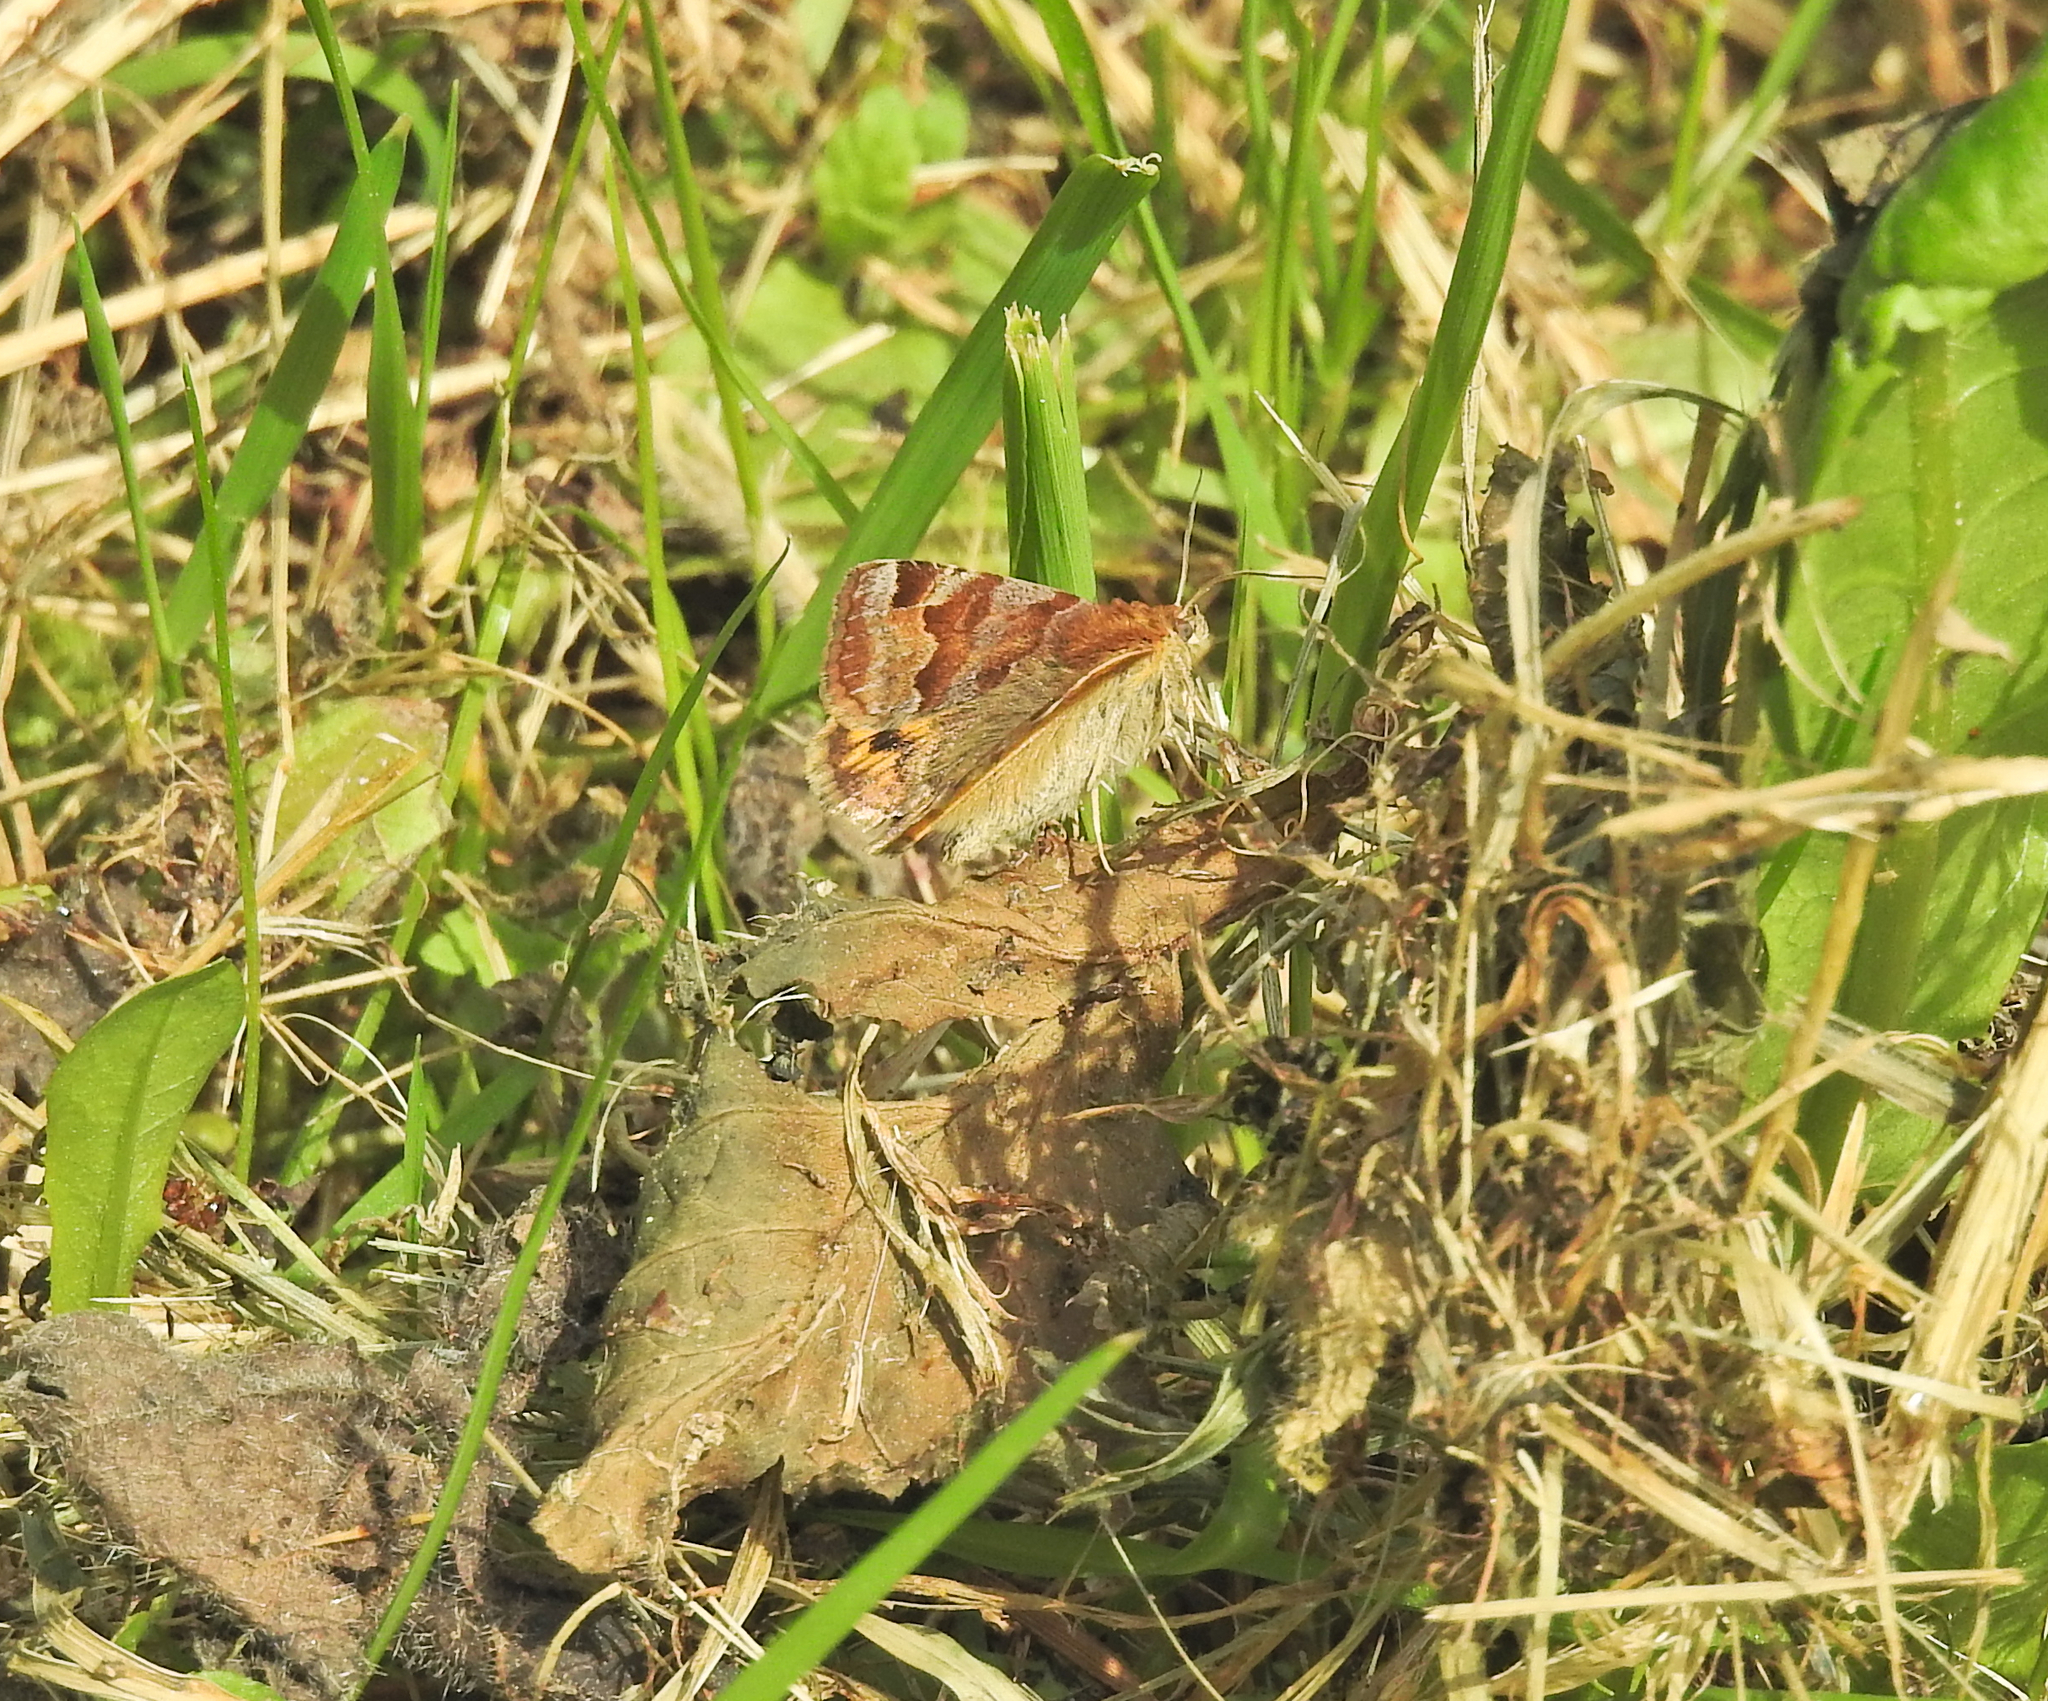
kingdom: Animalia
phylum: Arthropoda
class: Insecta
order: Lepidoptera
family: Erebidae
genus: Euclidia
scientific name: Euclidia glyphica
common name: Burnet companion
